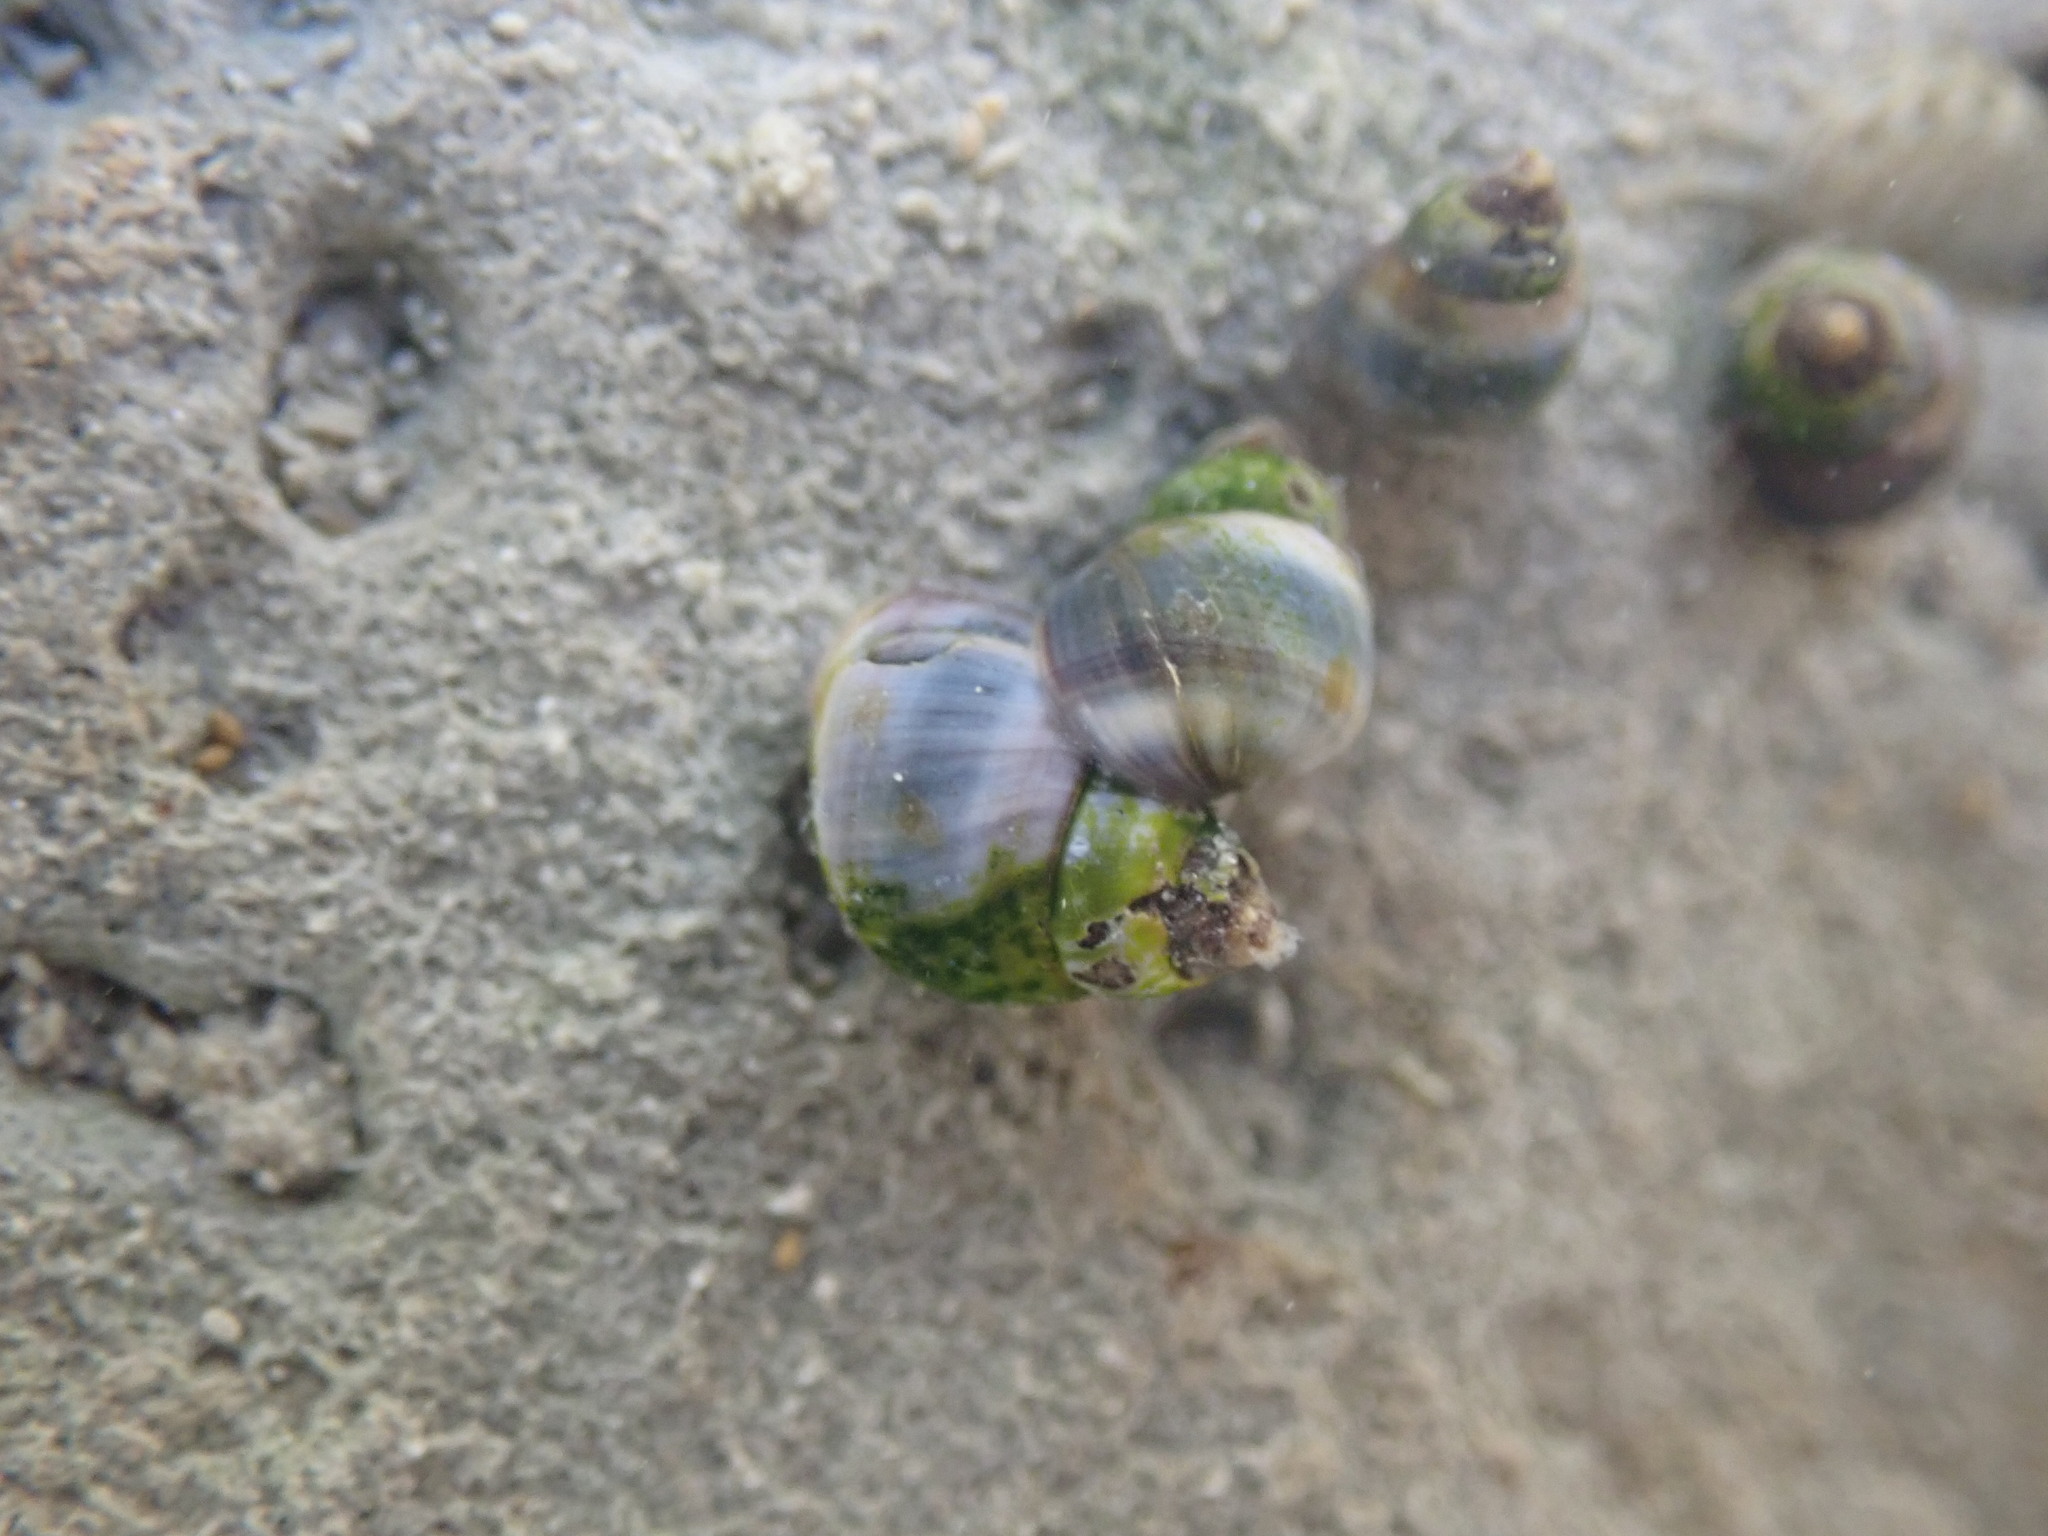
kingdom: Animalia
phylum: Mollusca
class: Gastropoda
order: Littorinimorpha
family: Littorinidae
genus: Austrolittorina
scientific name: Austrolittorina antipodum
